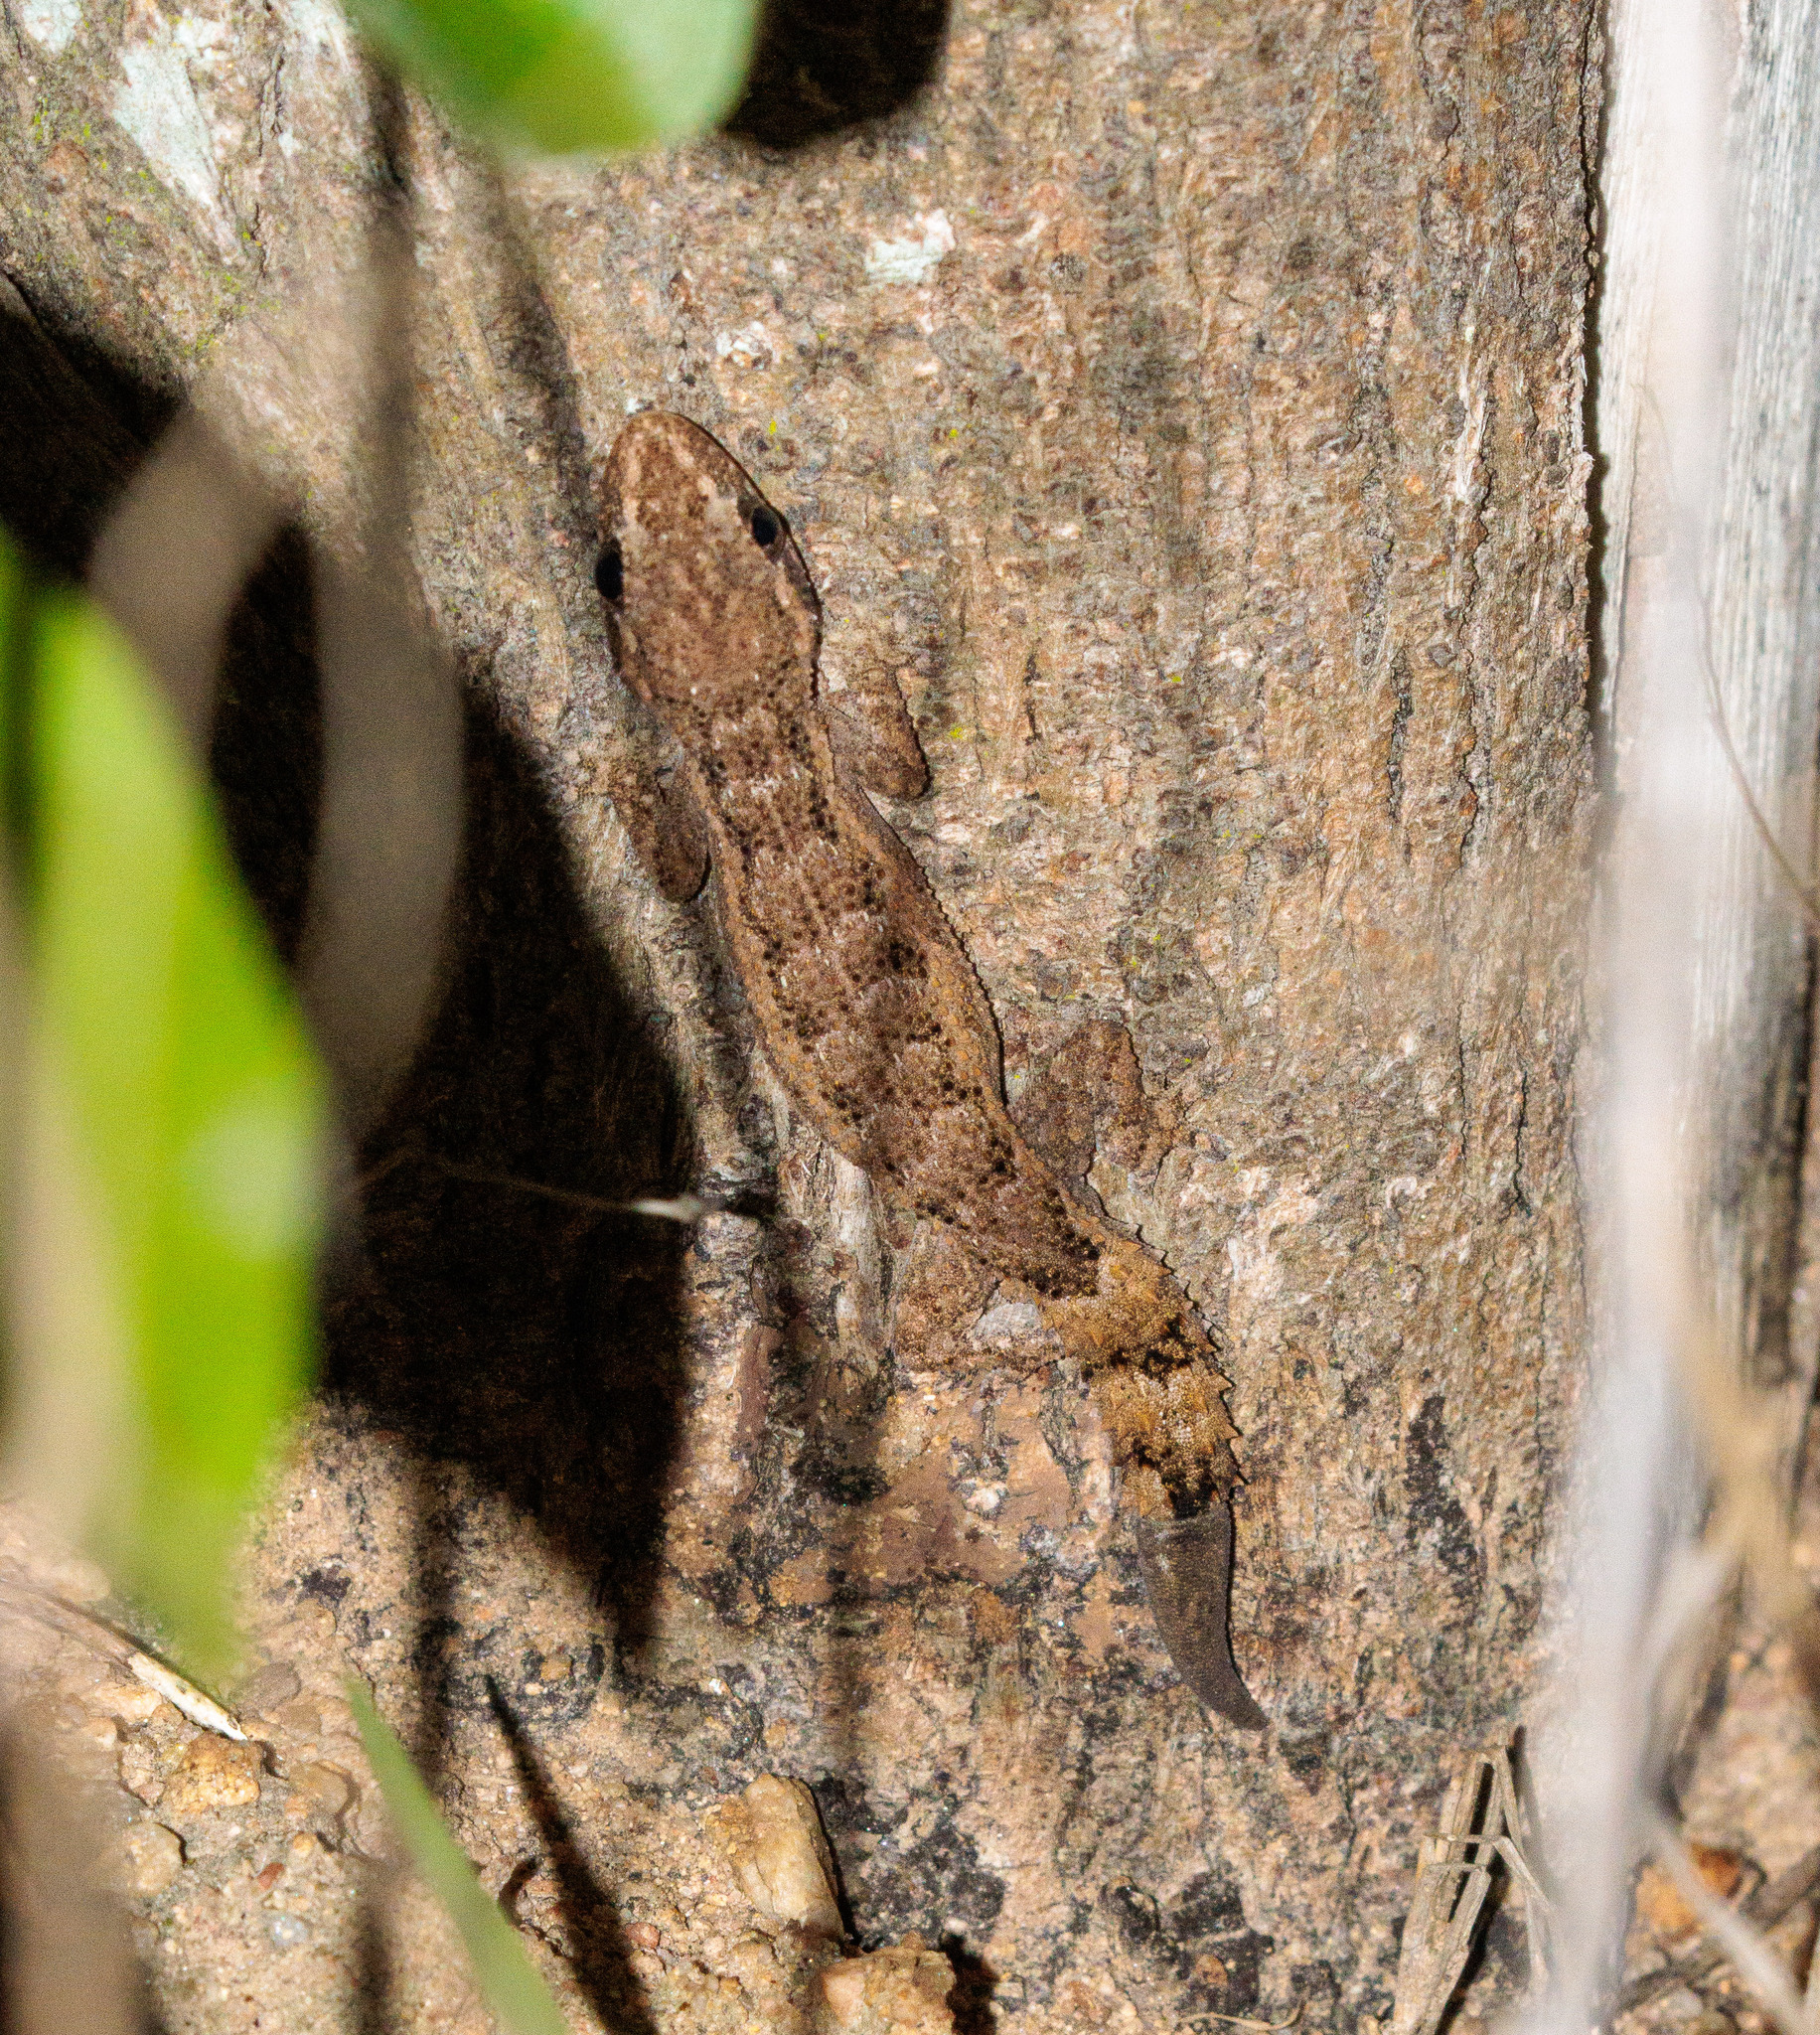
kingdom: Animalia
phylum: Chordata
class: Squamata
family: Gekkonidae
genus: Hemidactylus
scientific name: Hemidactylus brasilianus
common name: Amaral's brazilian gecko
